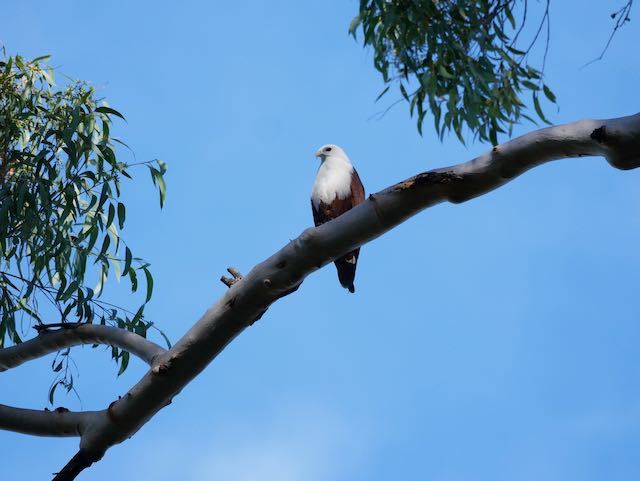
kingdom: Animalia
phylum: Chordata
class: Aves
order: Accipitriformes
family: Accipitridae
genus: Haliastur
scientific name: Haliastur indus
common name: Brahminy kite
